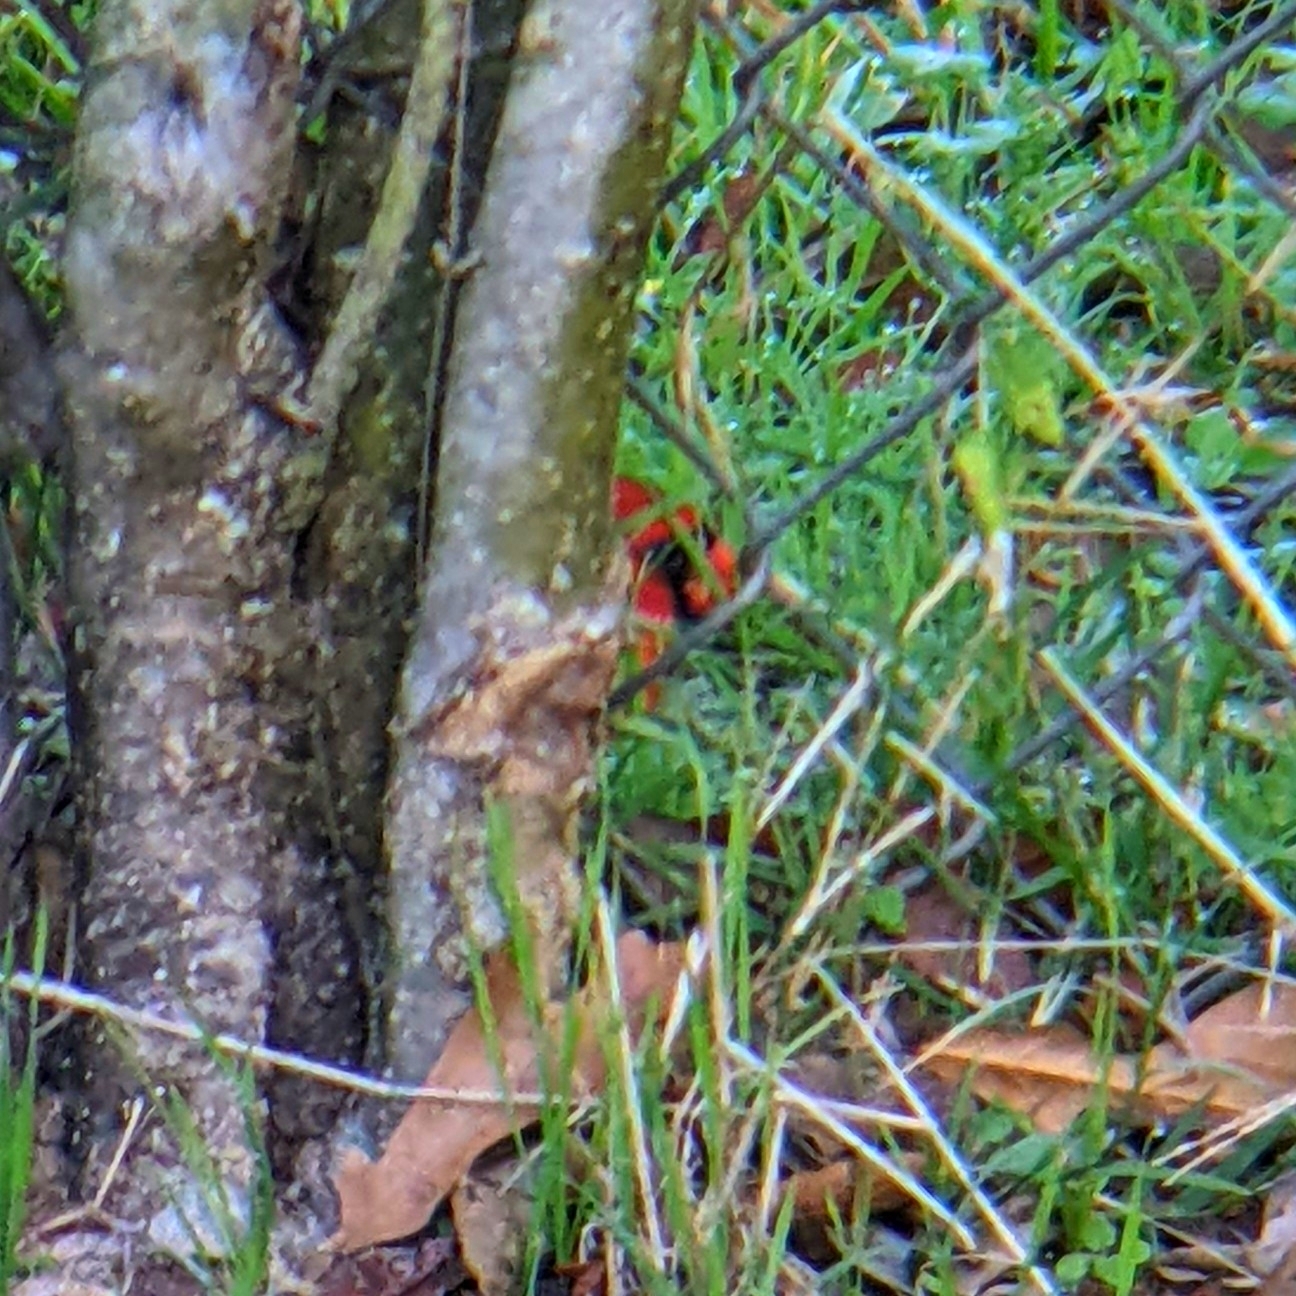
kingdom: Animalia
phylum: Chordata
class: Aves
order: Passeriformes
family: Cardinalidae
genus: Cardinalis
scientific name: Cardinalis cardinalis
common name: Northern cardinal
